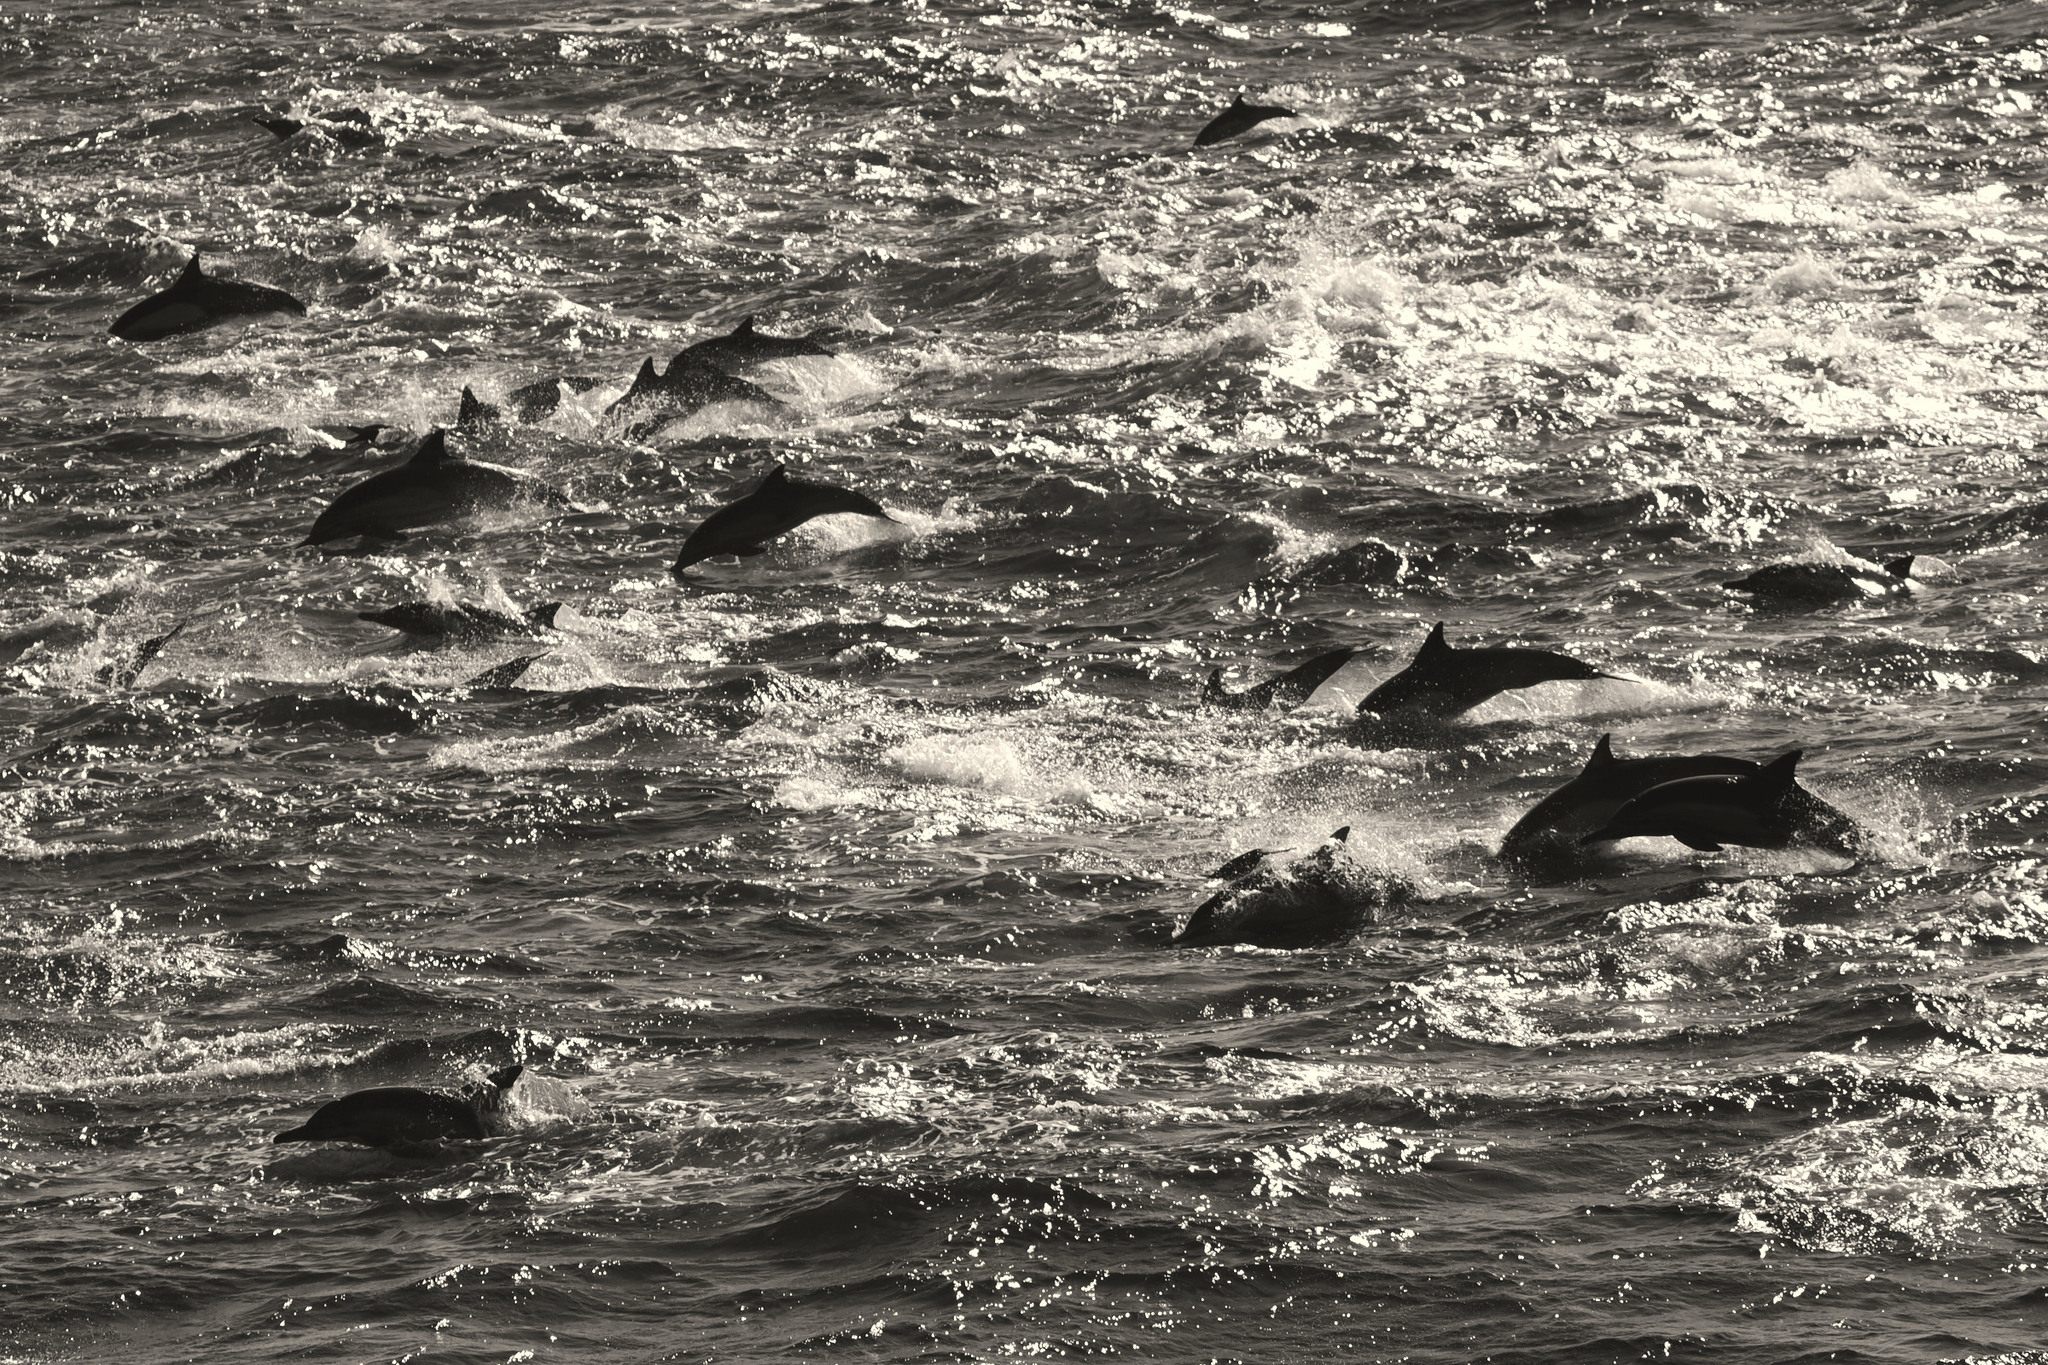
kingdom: Animalia
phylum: Chordata
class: Mammalia
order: Cetacea
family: Delphinidae
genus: Delphinus
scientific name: Delphinus delphis
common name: Common dolphin
